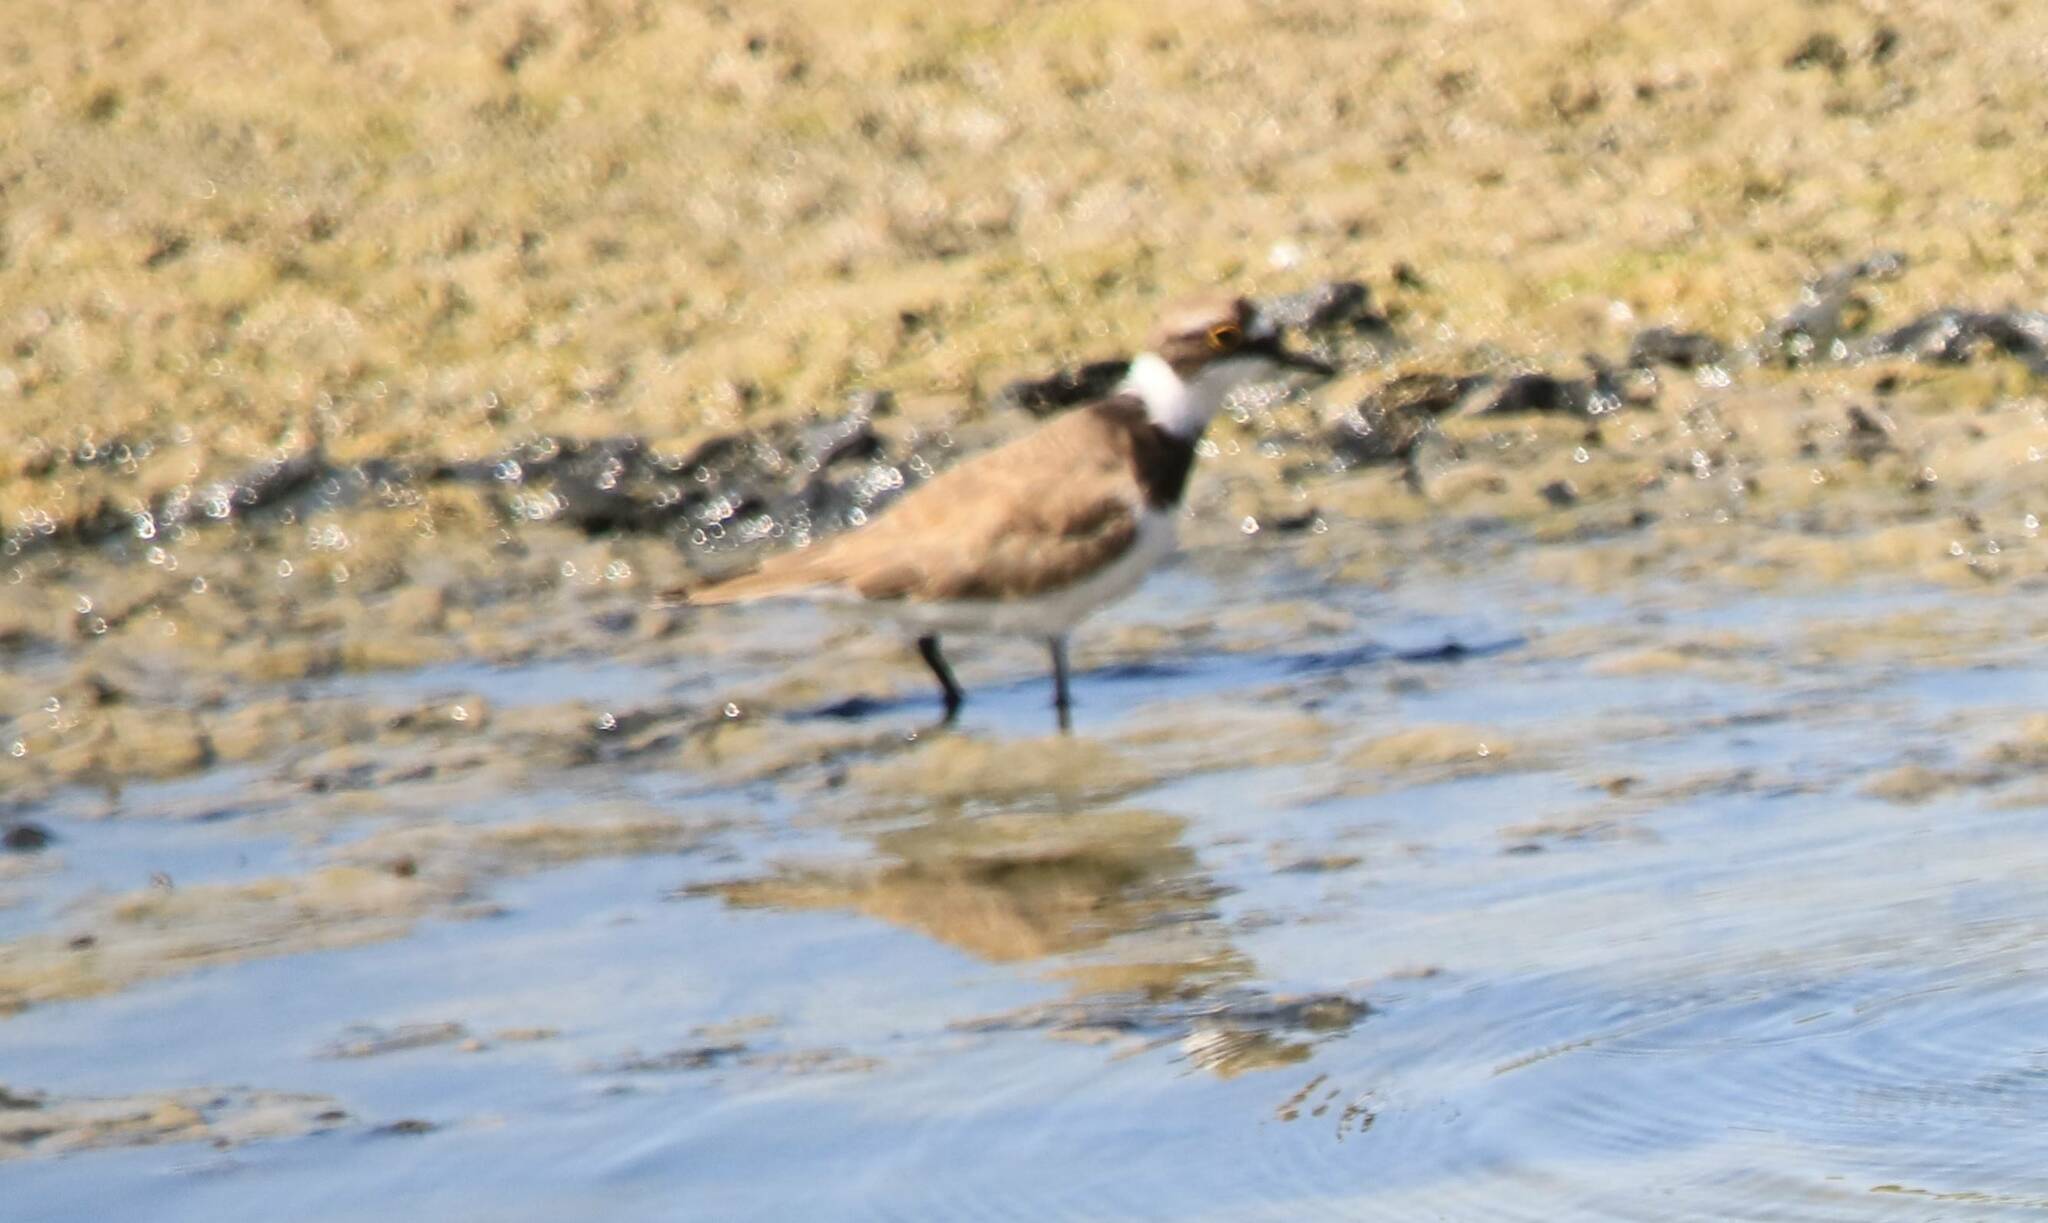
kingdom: Animalia
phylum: Chordata
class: Aves
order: Charadriiformes
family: Charadriidae
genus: Charadrius
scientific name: Charadrius dubius
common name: Little ringed plover
